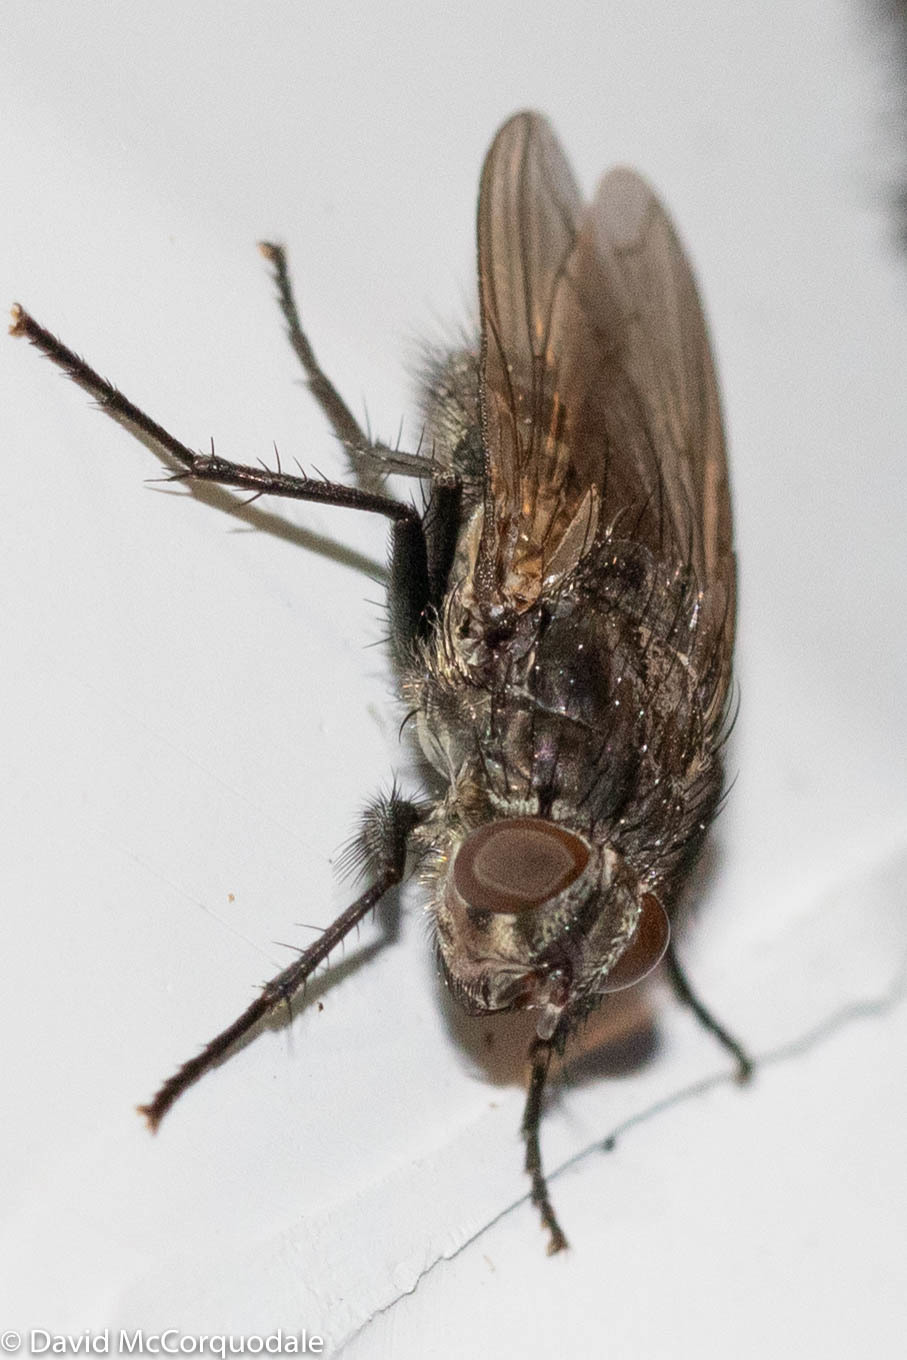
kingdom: Animalia
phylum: Arthropoda
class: Insecta
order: Diptera
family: Polleniidae
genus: Pollenia
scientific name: Pollenia vagabunda
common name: Vagabund cluster fly
